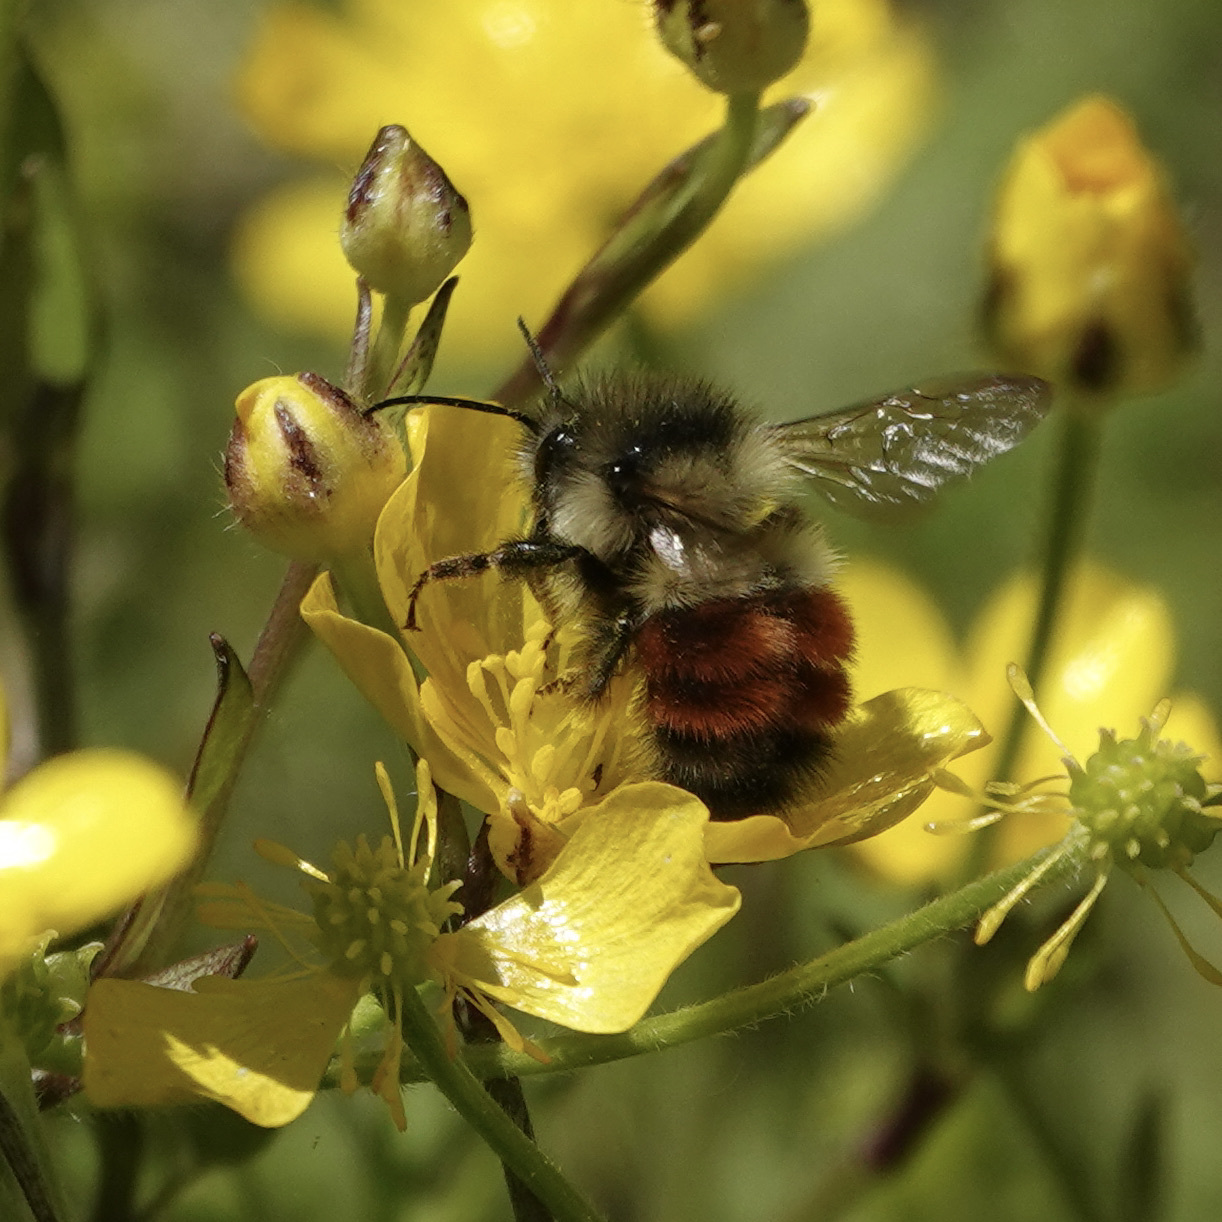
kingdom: Animalia
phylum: Arthropoda
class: Insecta
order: Hymenoptera
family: Apidae
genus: Bombus
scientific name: Bombus melanopygus
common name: Black tail bumble bee
